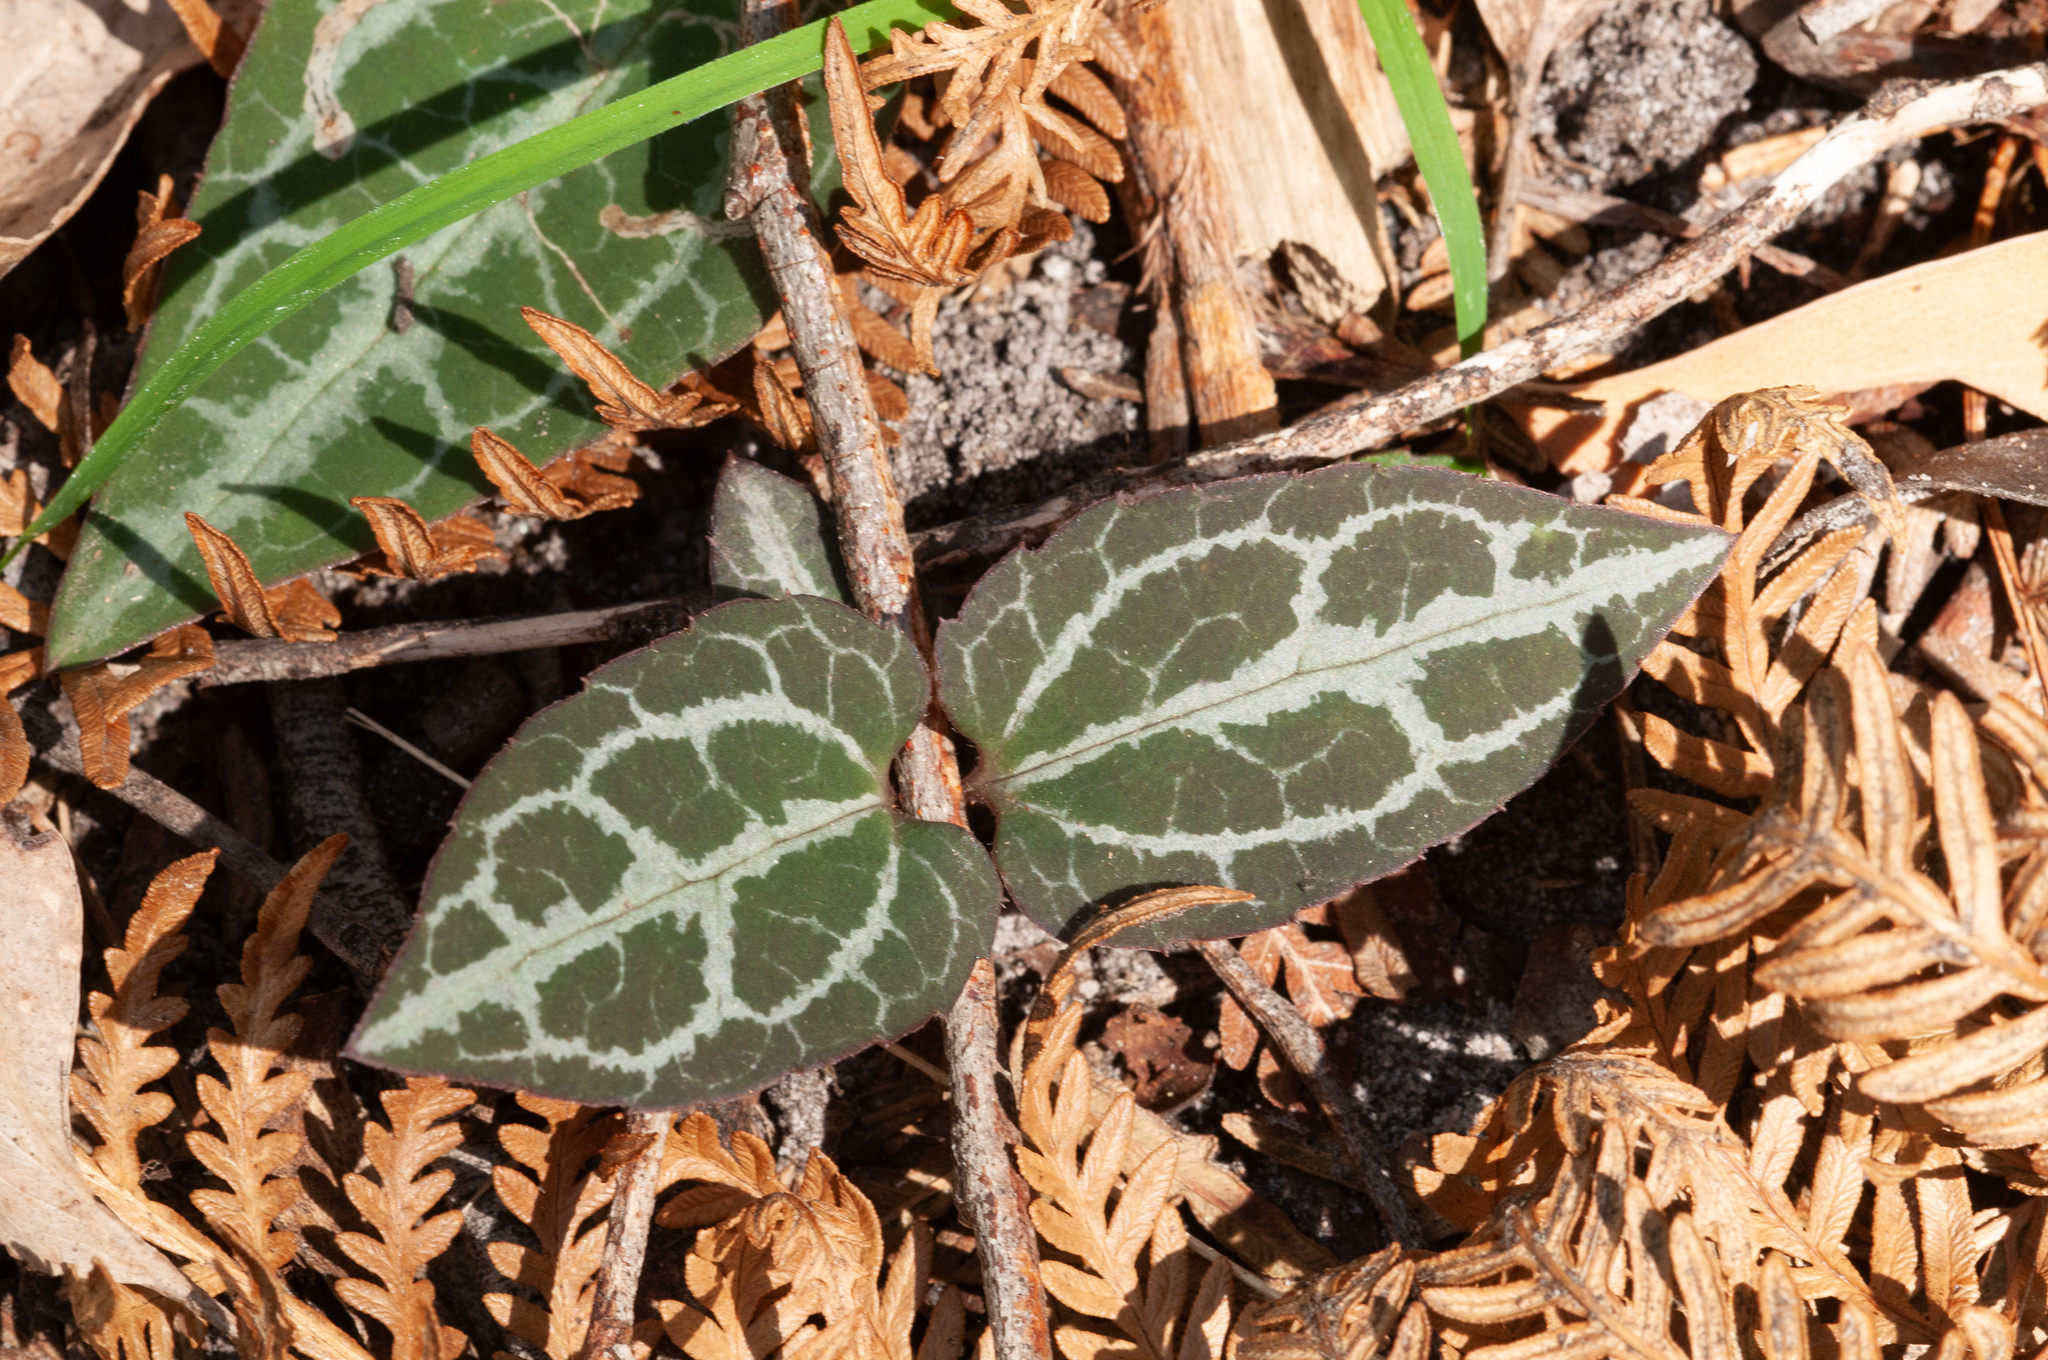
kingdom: Plantae
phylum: Tracheophyta
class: Magnoliopsida
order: Ranunculales
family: Ranunculaceae
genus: Clematis
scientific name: Clematis aristata
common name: Mountain clematis
